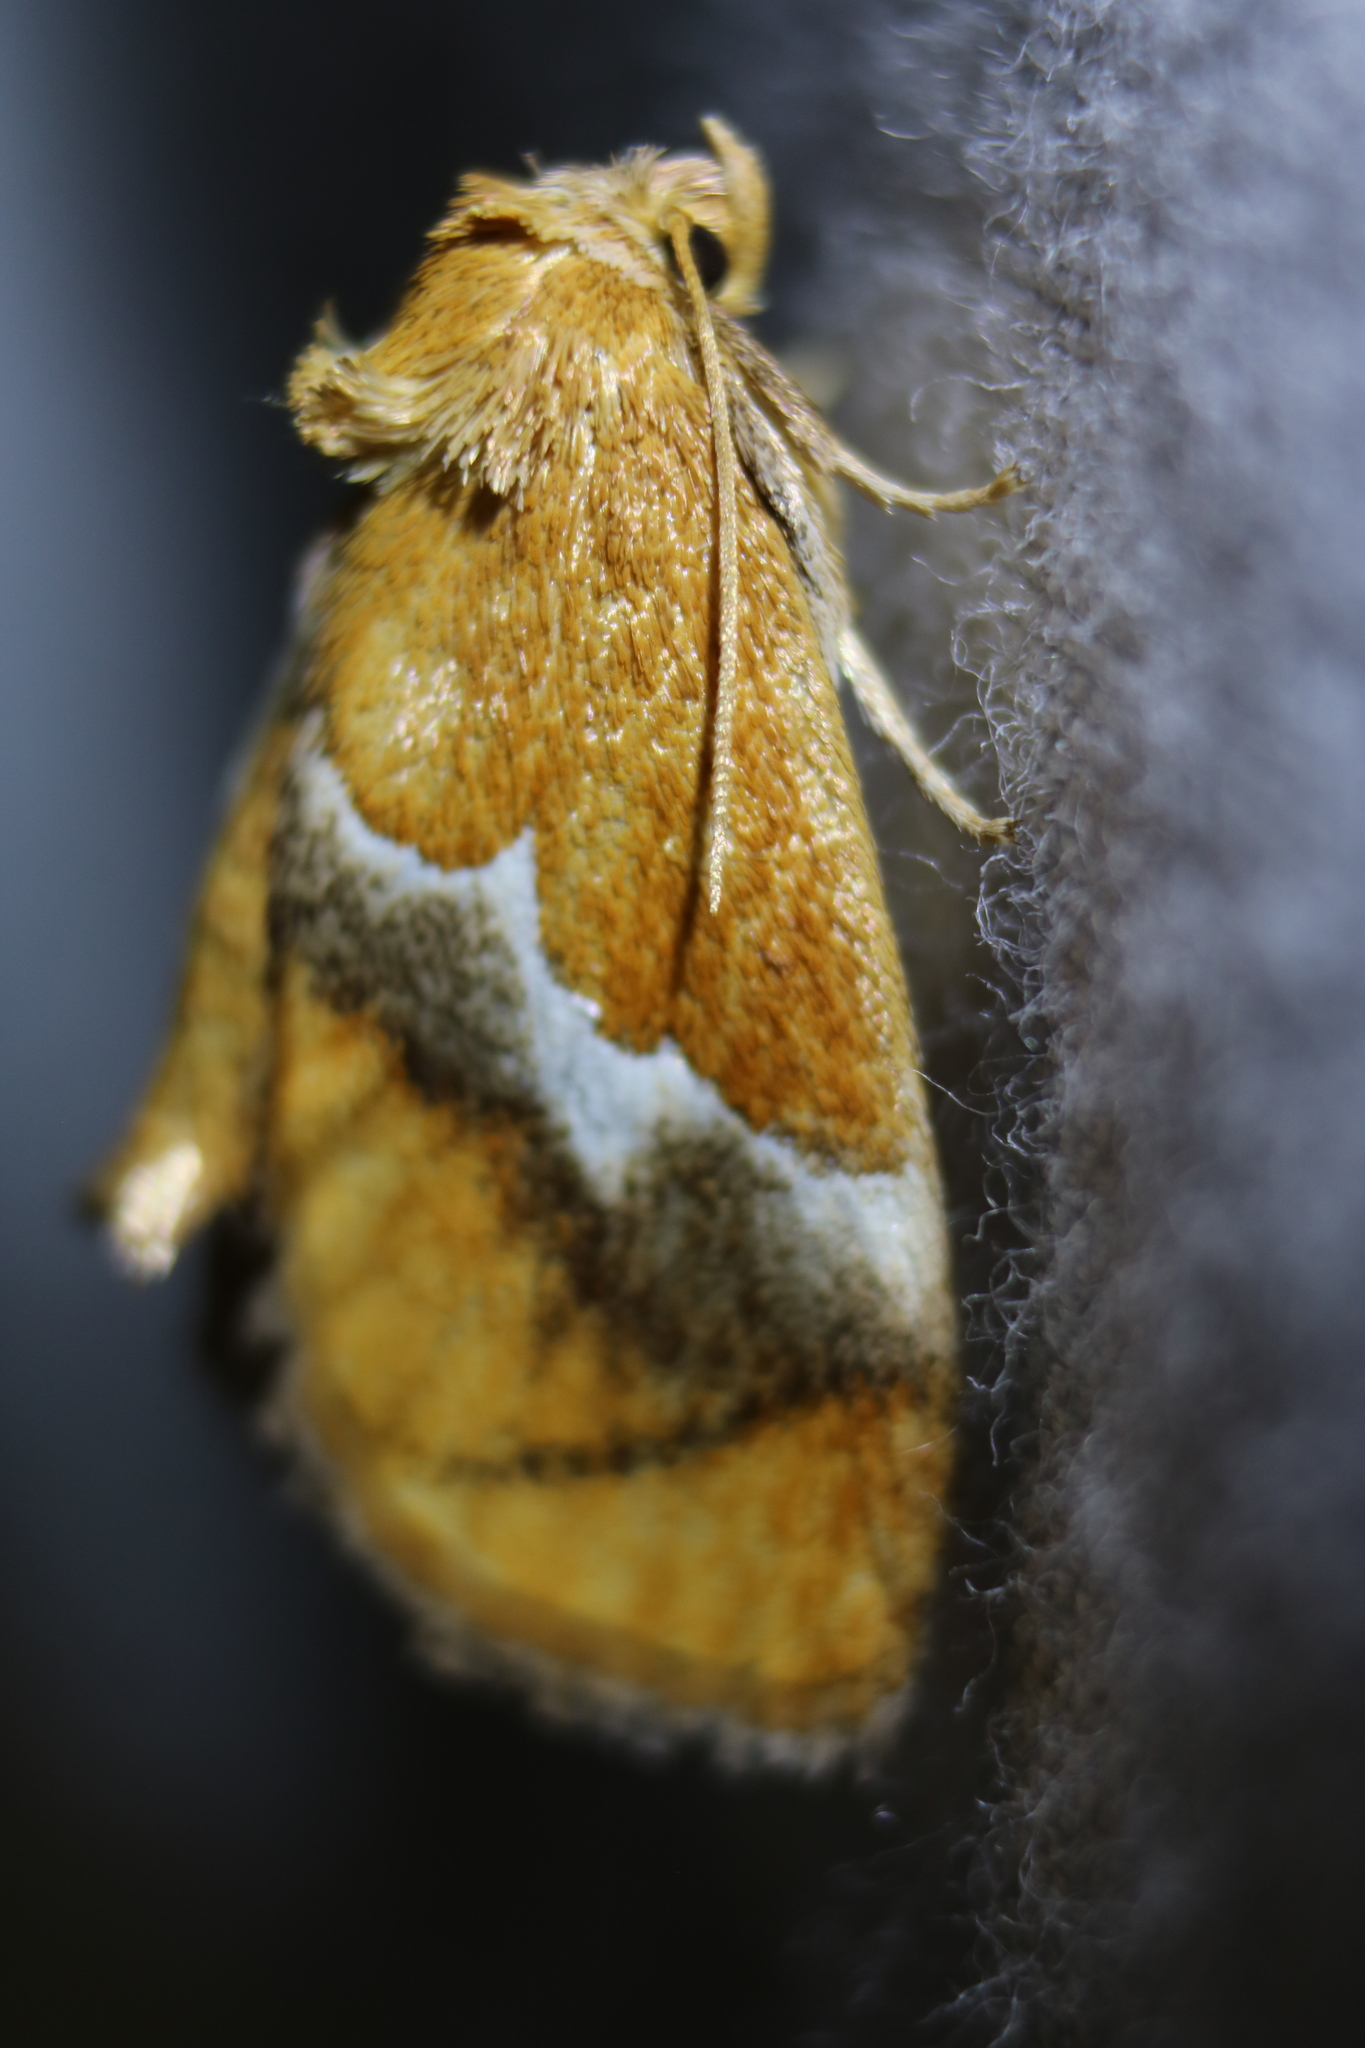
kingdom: Animalia
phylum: Arthropoda
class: Insecta
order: Lepidoptera
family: Limacodidae
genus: Lithacodes
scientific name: Lithacodes fasciola
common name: Yellow-shouldered slug moth
